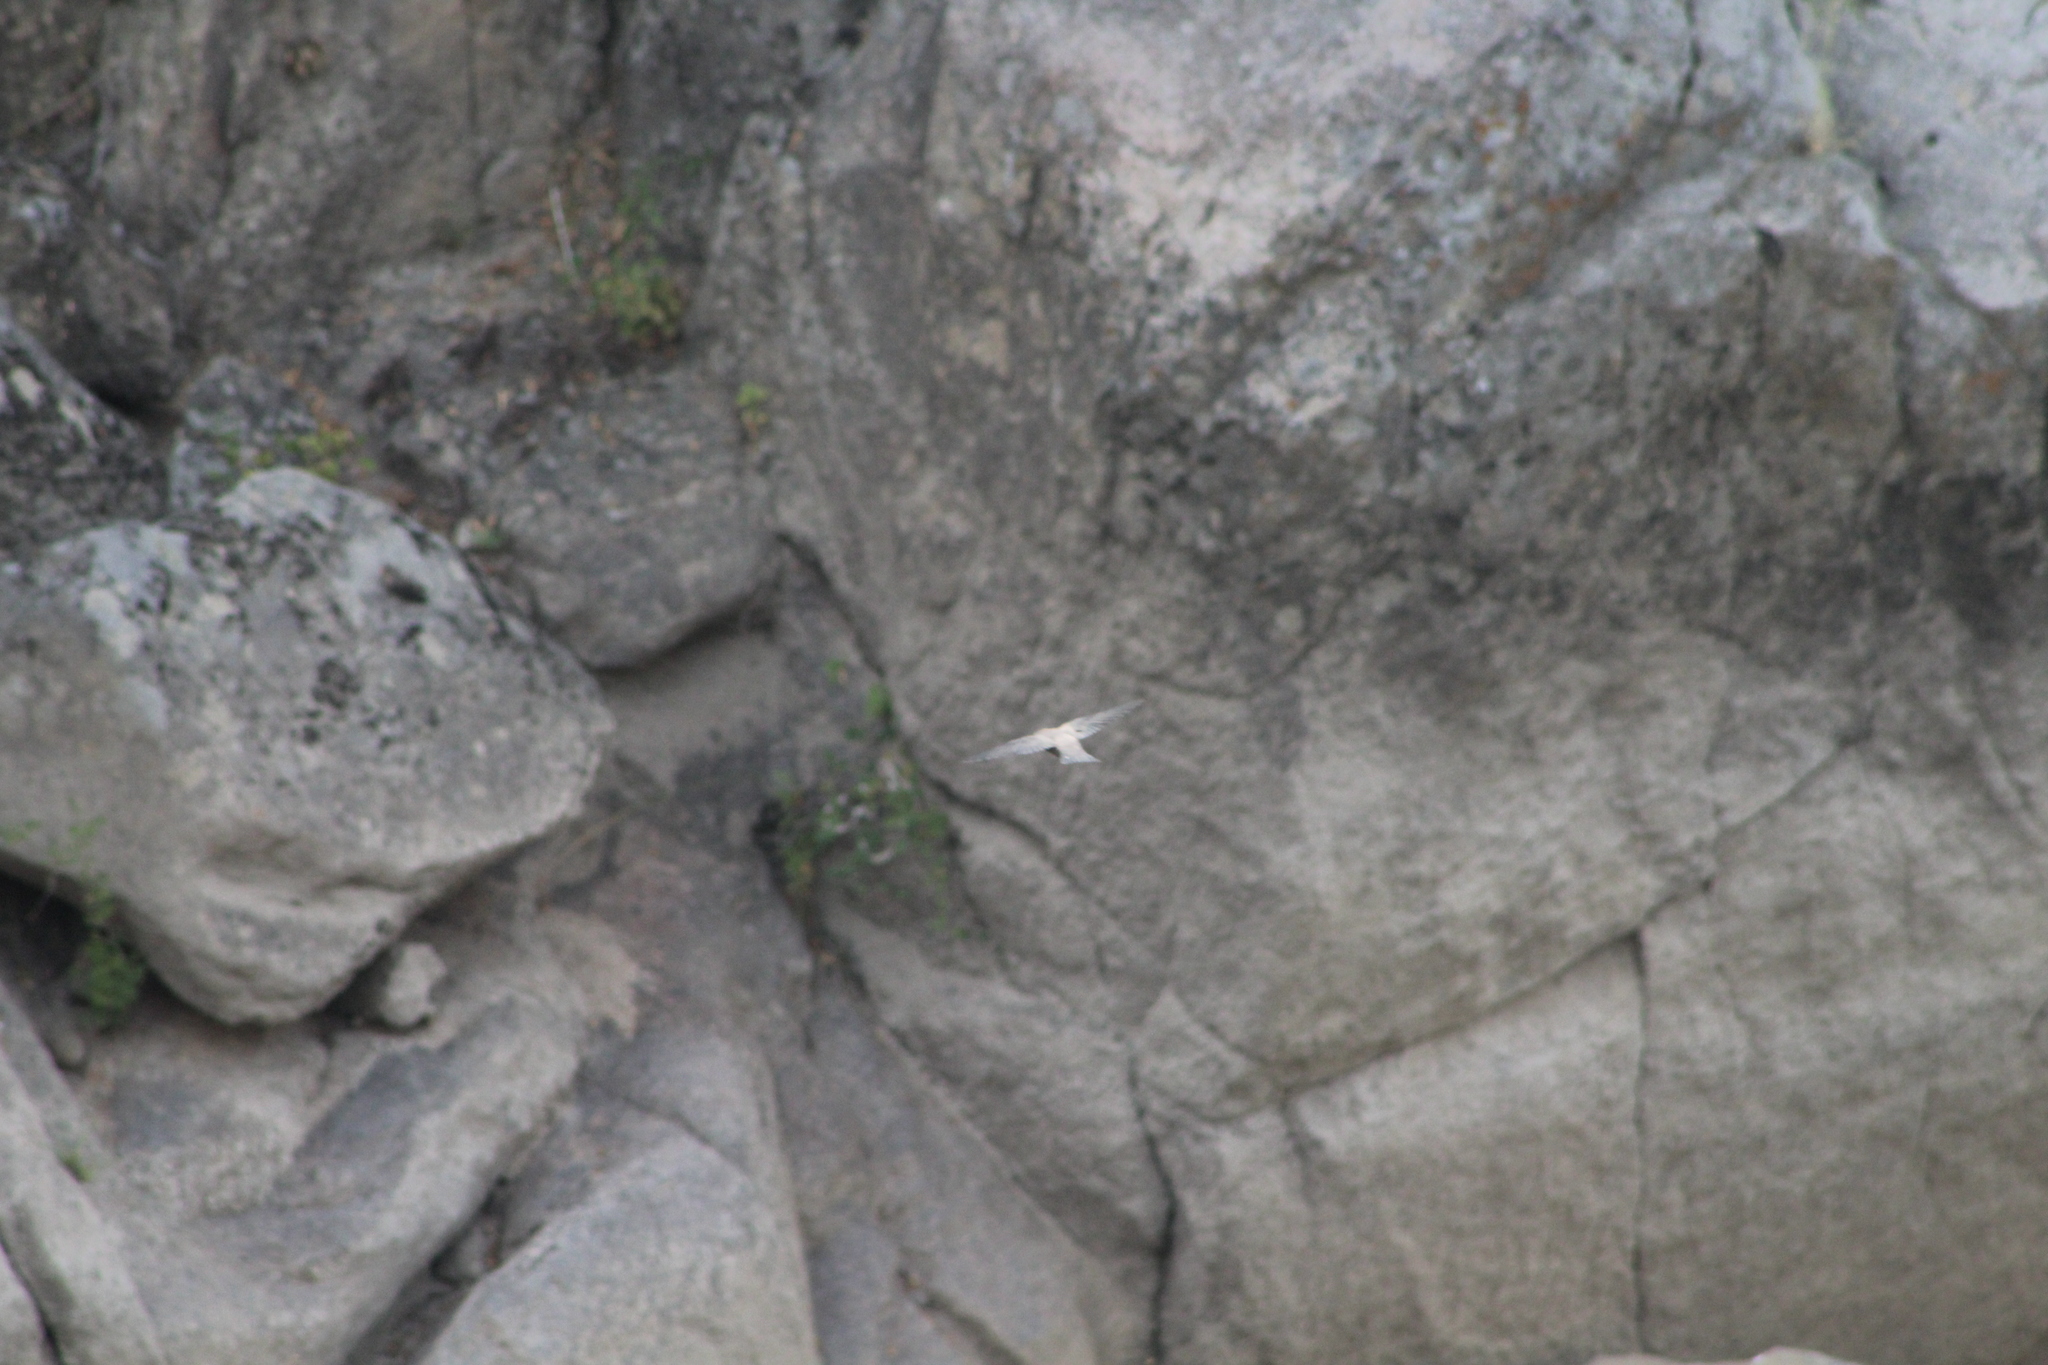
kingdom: Animalia
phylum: Chordata
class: Aves
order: Passeriformes
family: Hirundinidae
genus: Ptyonoprogne
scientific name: Ptyonoprogne rupestris
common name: Eurasian crag martin
